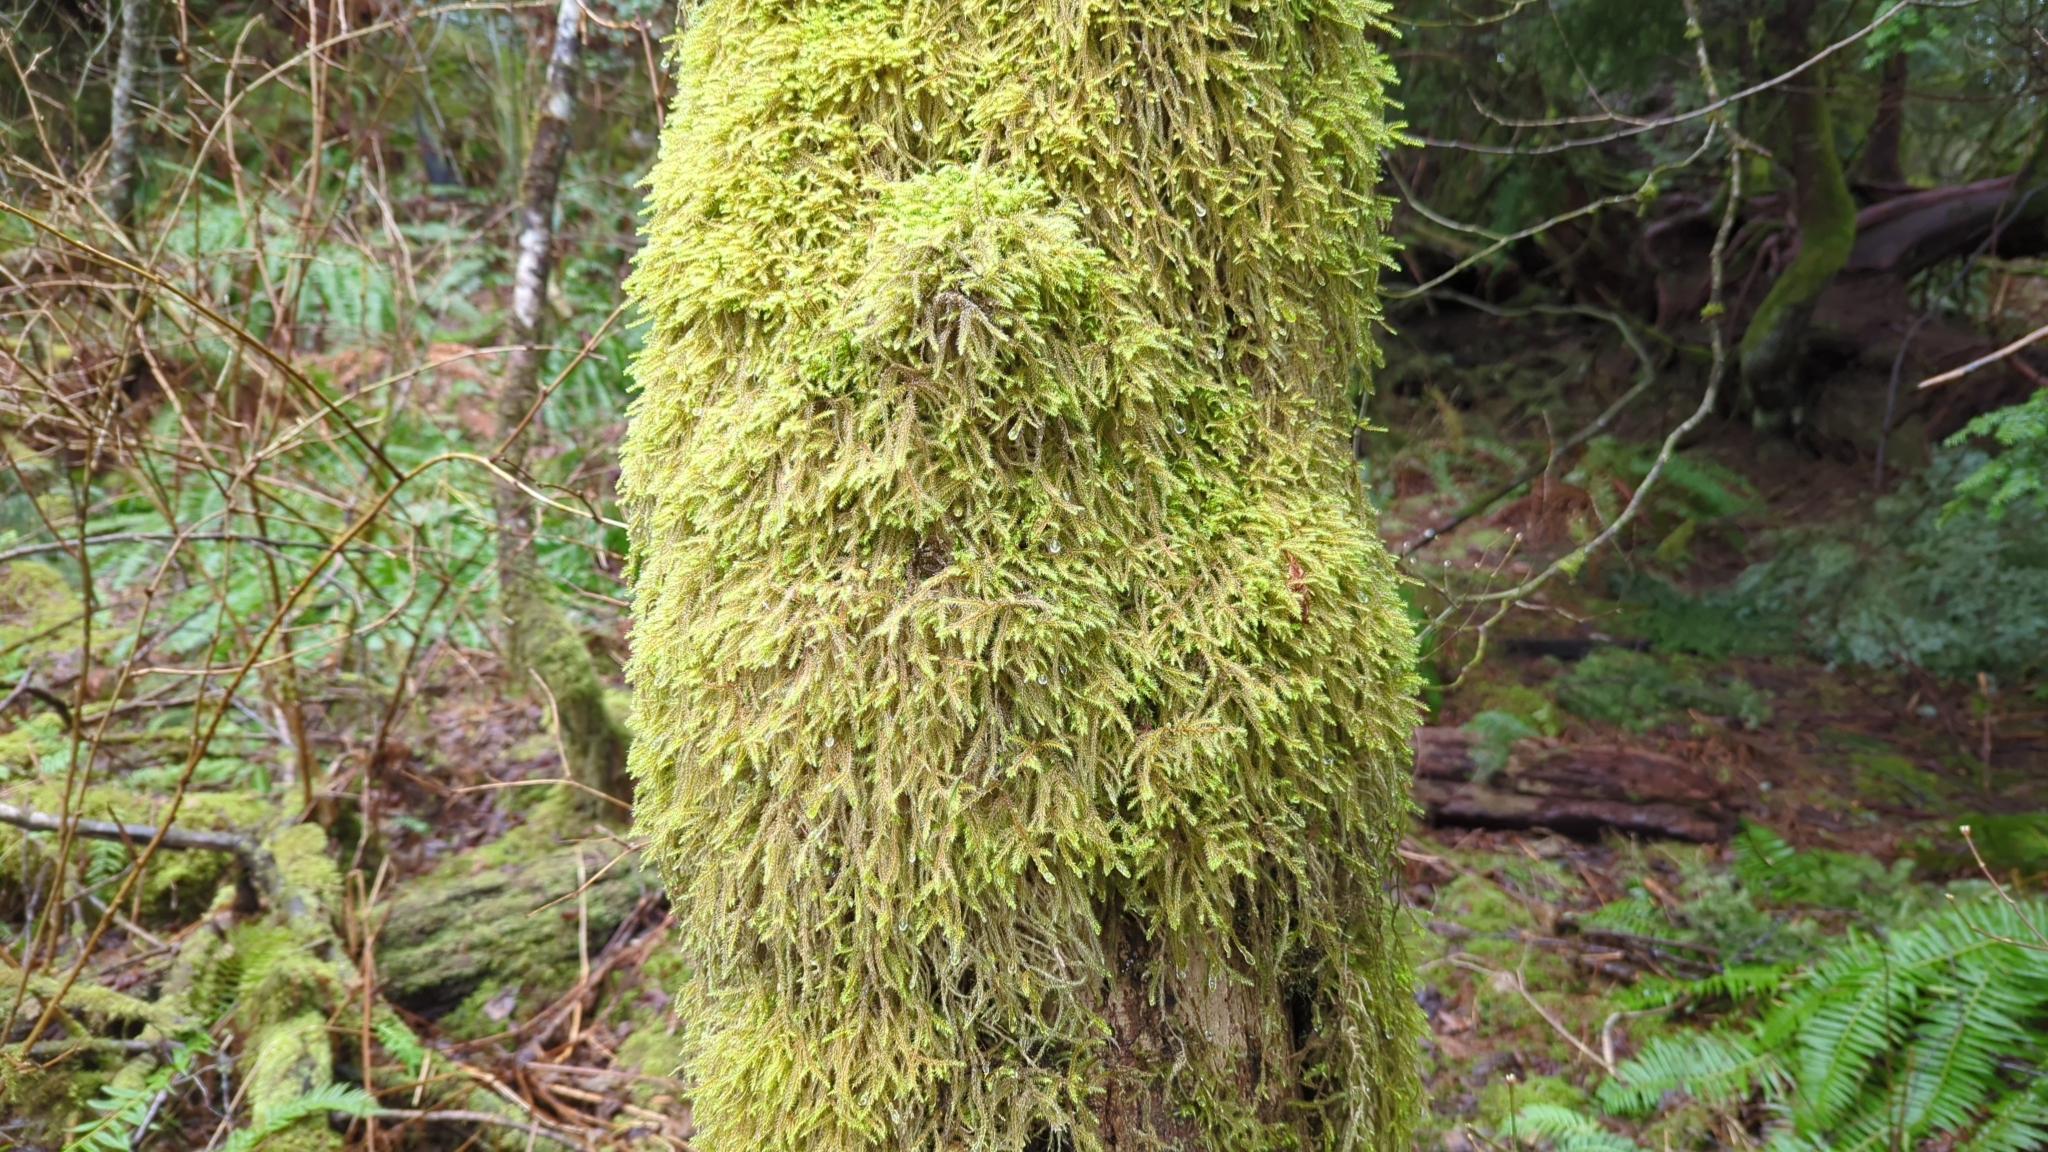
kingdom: Plantae
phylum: Bryophyta
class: Bryopsida
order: Hypnales
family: Hylocomiaceae
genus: Rhytidiadelphus
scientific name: Rhytidiadelphus loreus
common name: Lanky moss
